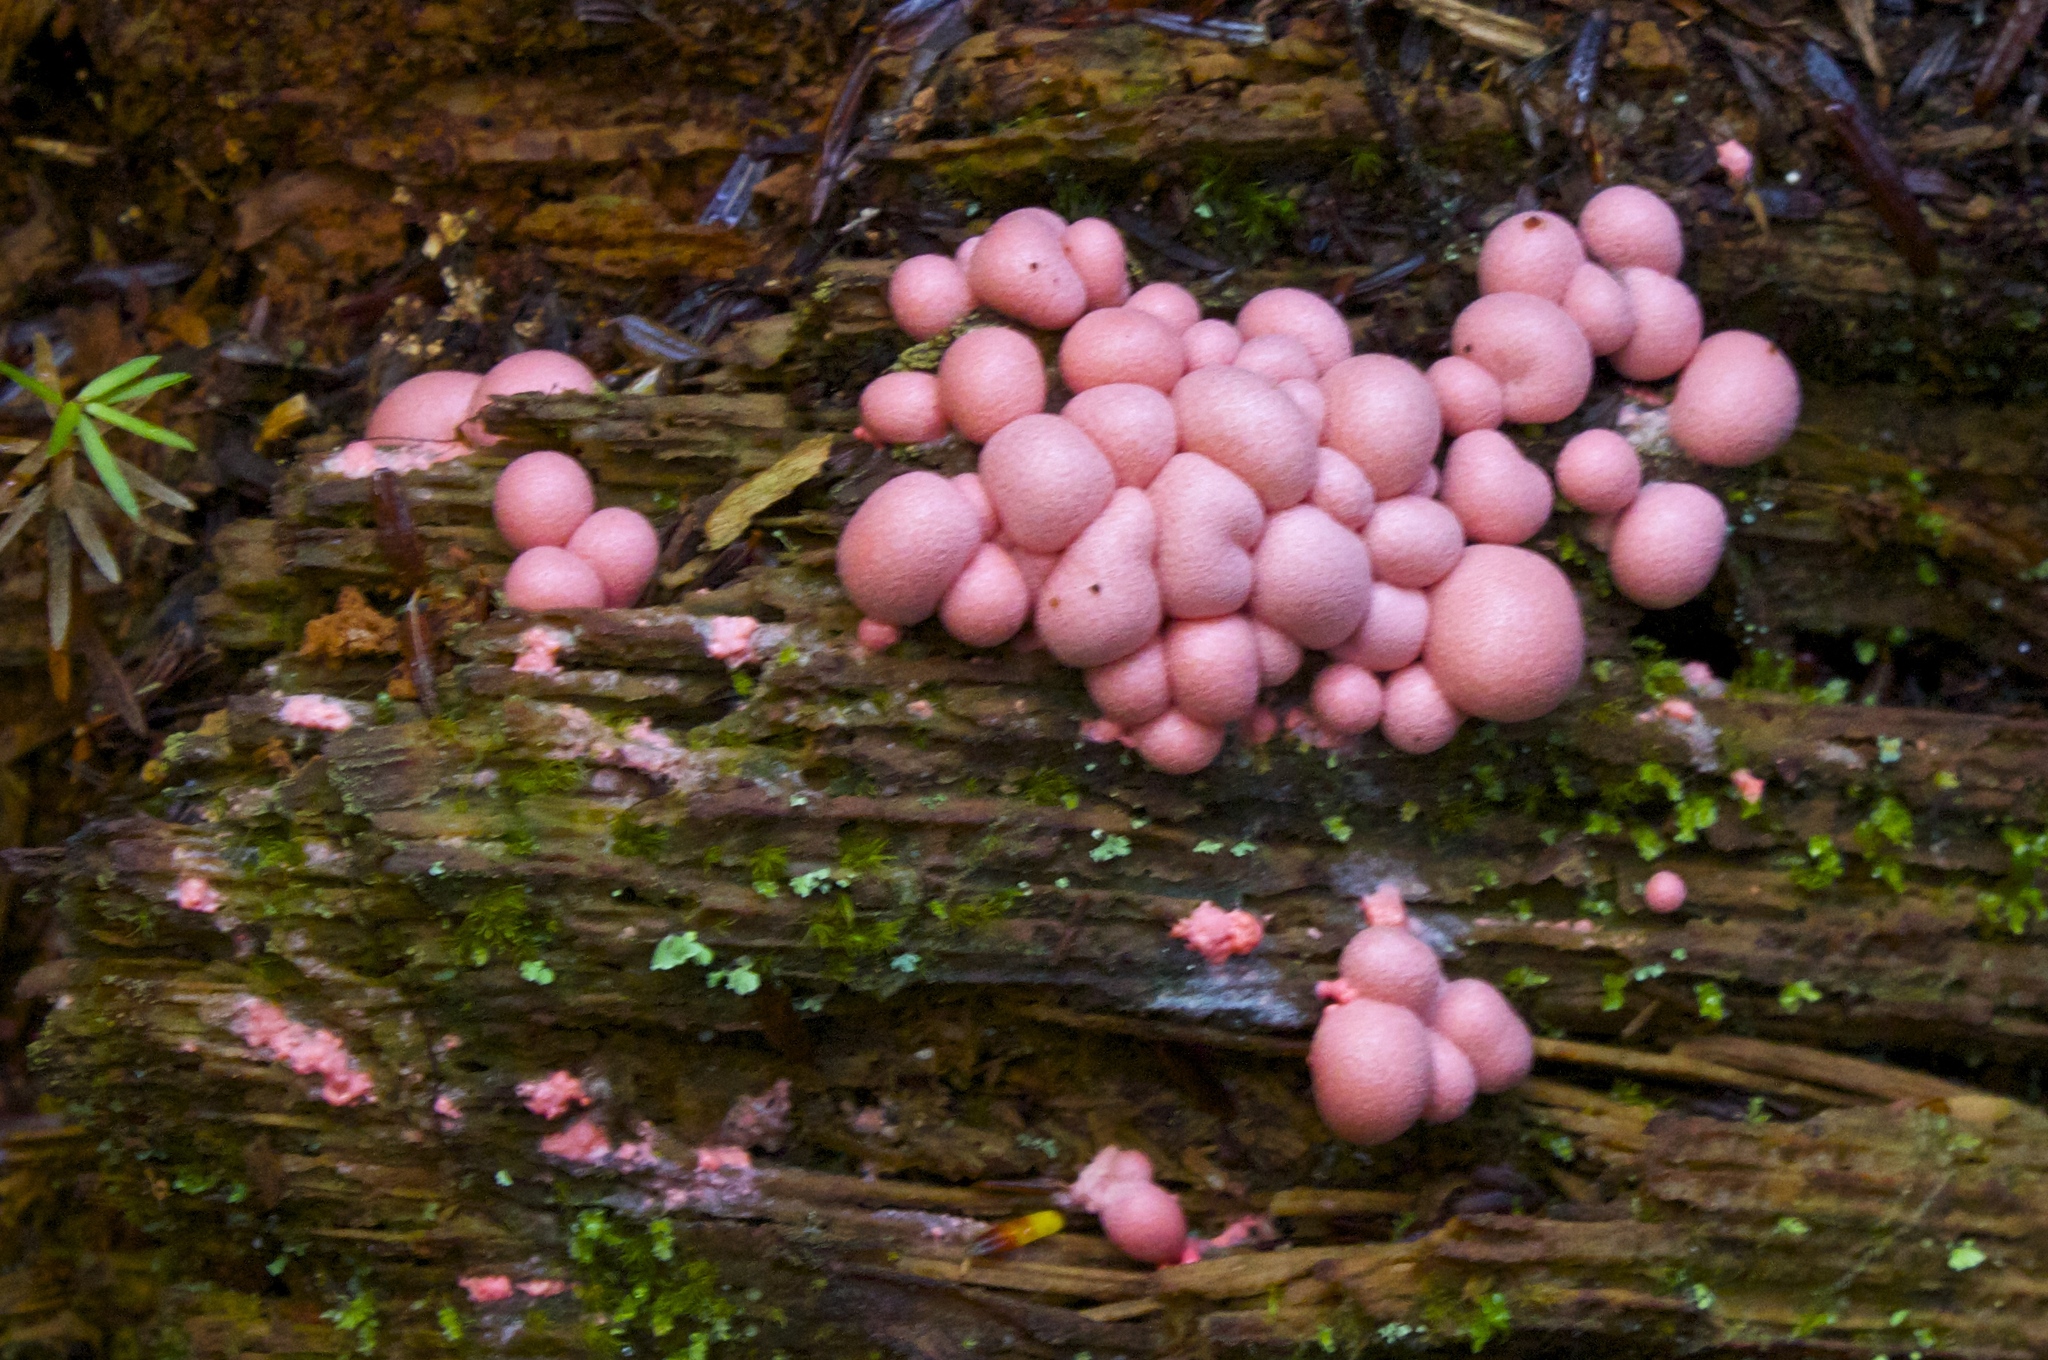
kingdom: Protozoa
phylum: Mycetozoa
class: Myxomycetes
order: Cribrariales
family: Tubiferaceae
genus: Lycogala
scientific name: Lycogala epidendrum
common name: Wolf's milk
